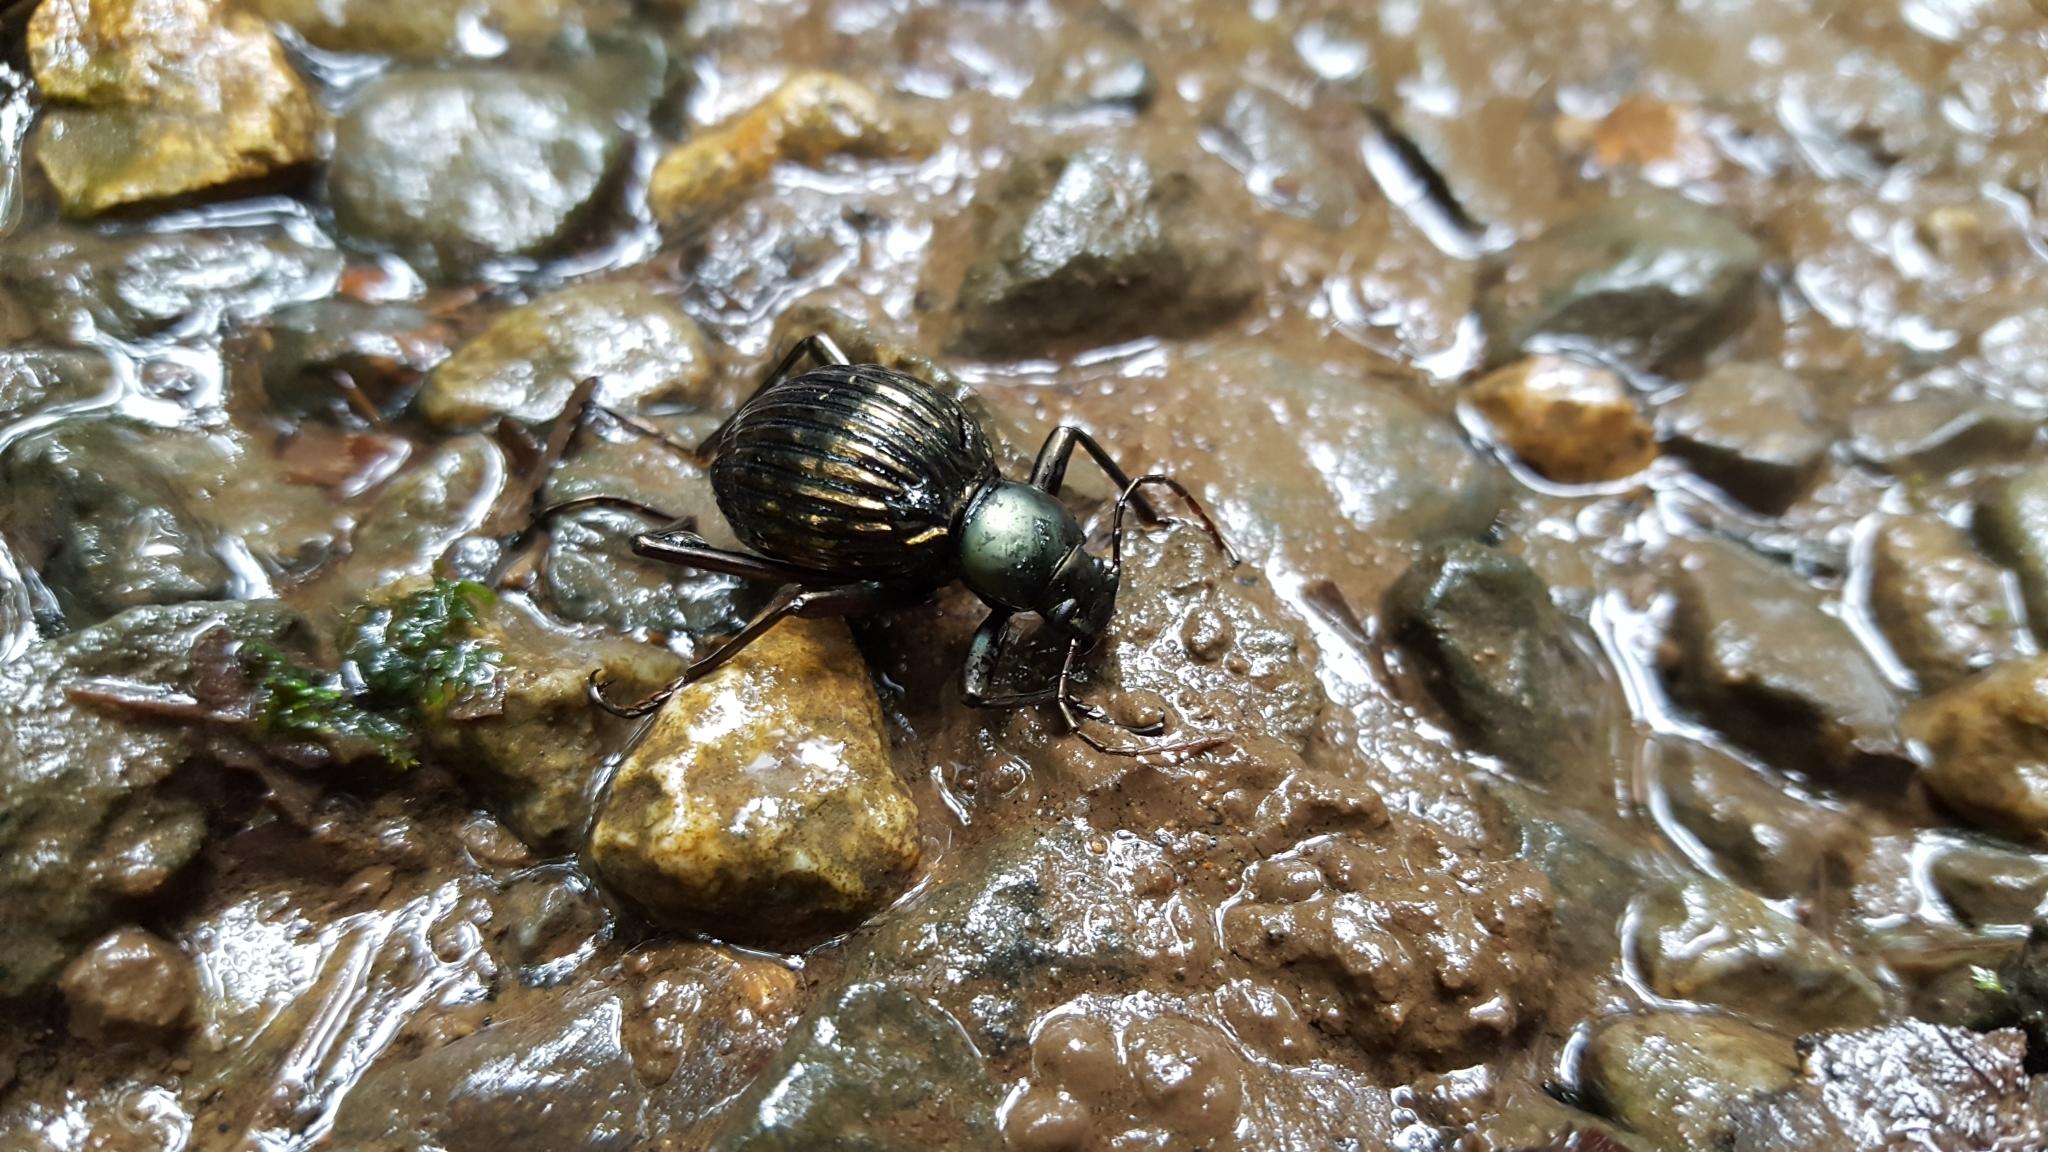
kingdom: Animalia
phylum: Arthropoda
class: Insecta
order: Coleoptera
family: Tenebrionidae
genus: Hegemona
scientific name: Hegemona flibuster
